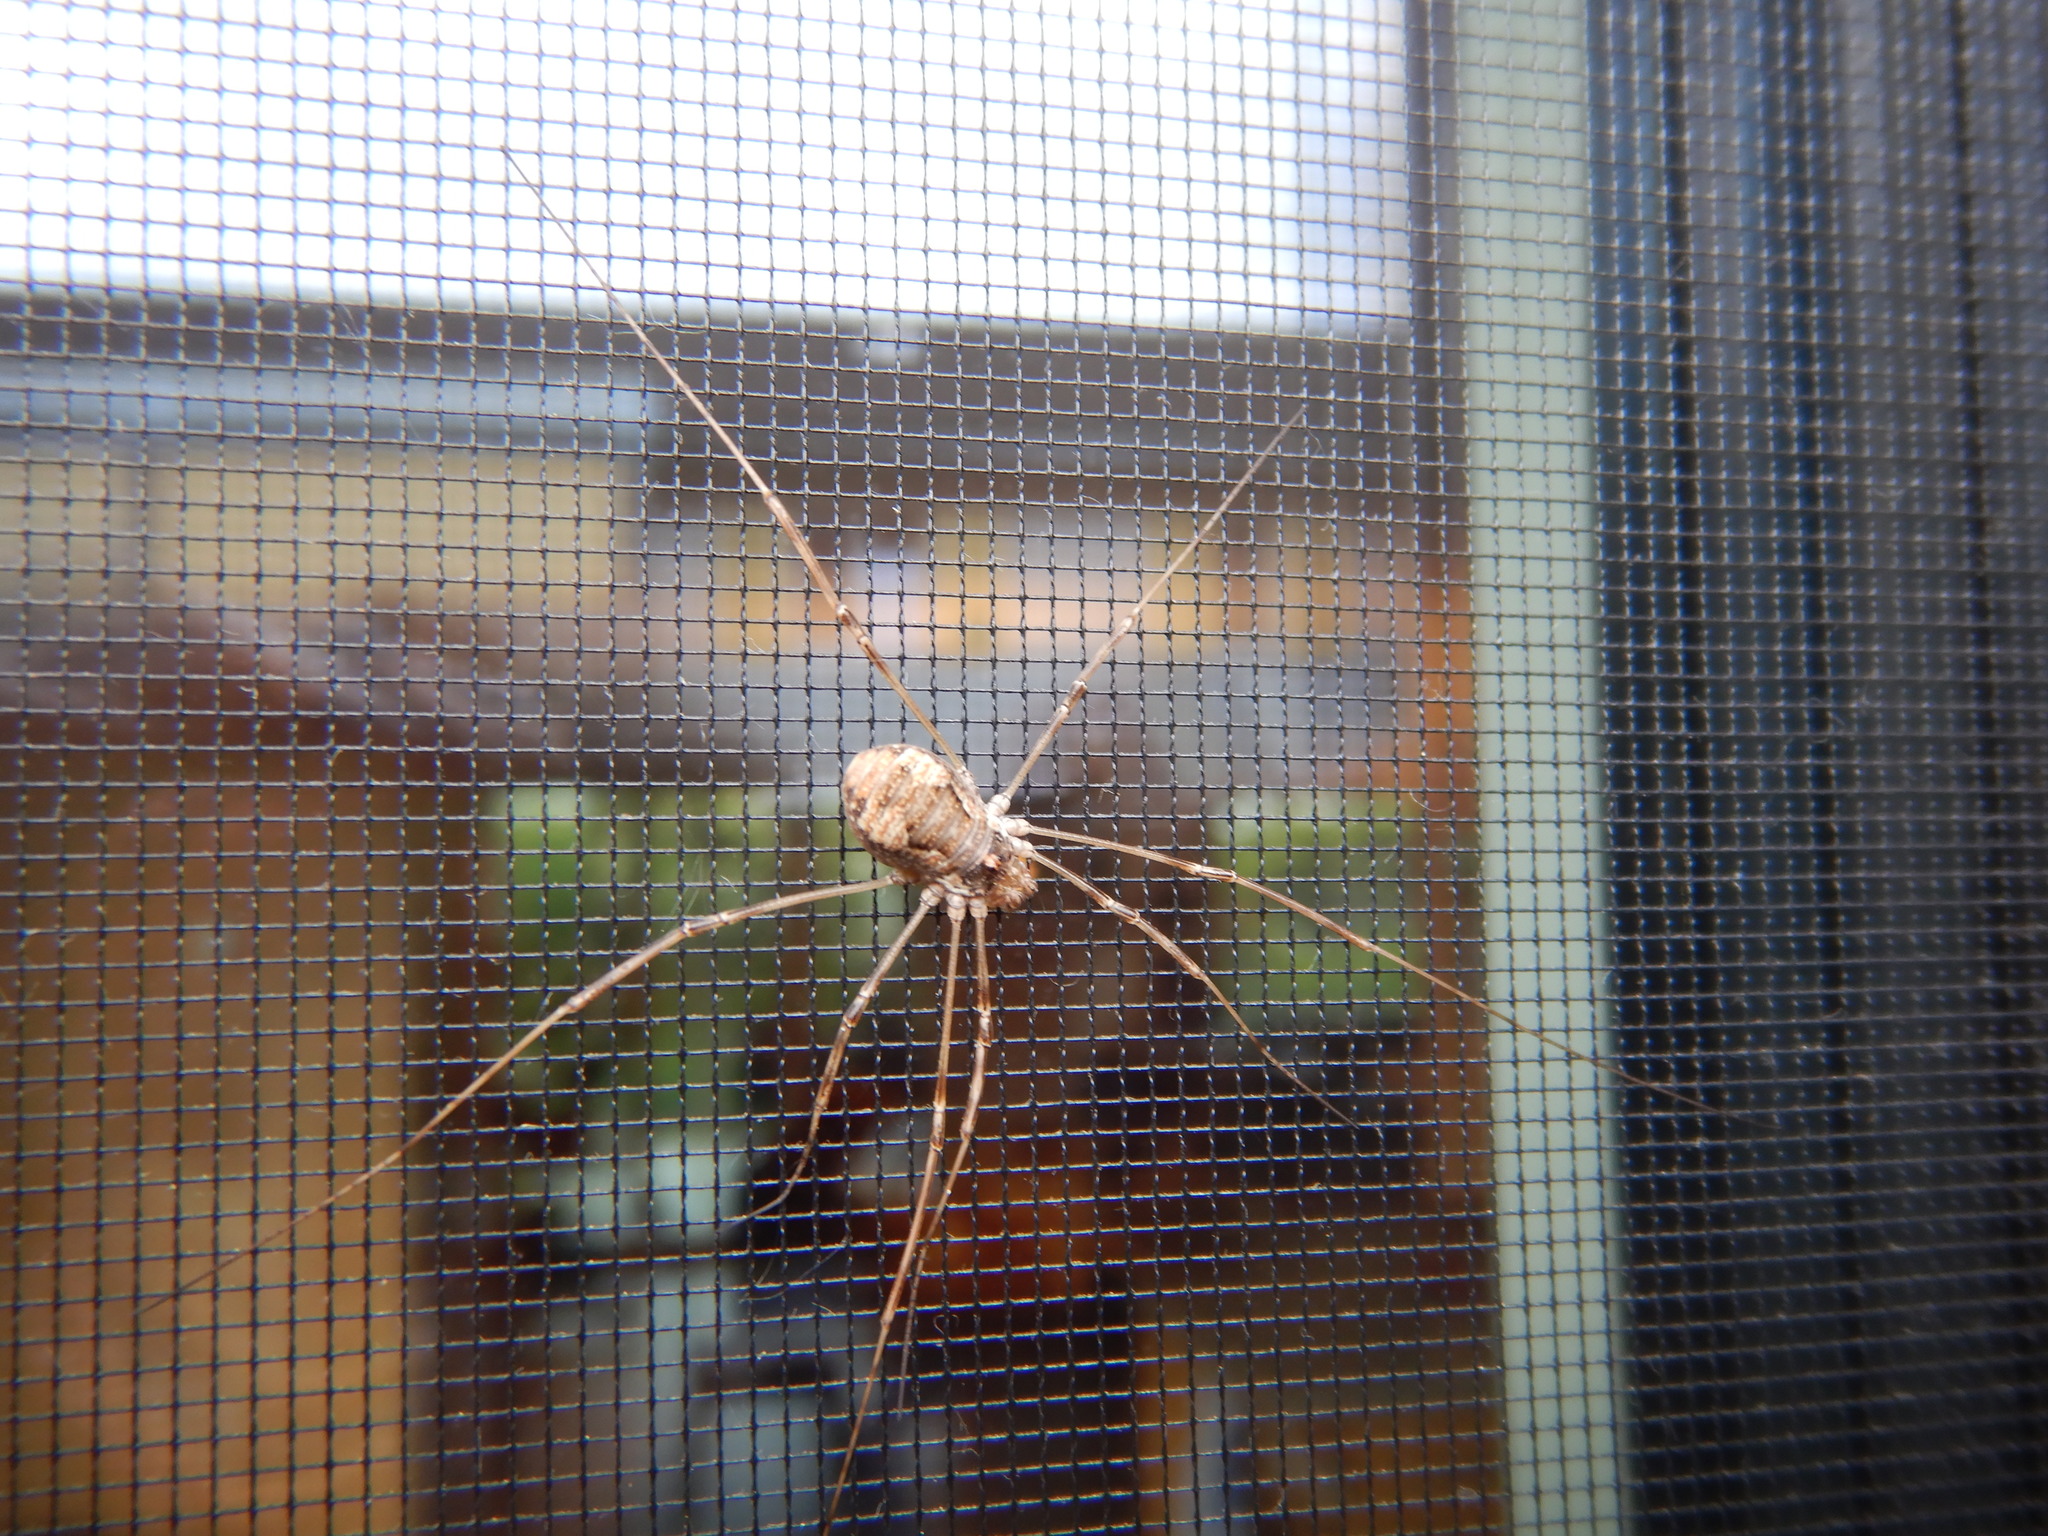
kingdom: Animalia
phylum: Arthropoda
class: Arachnida
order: Opiliones
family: Phalangiidae
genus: Dasylobus
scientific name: Dasylobus graniferus
